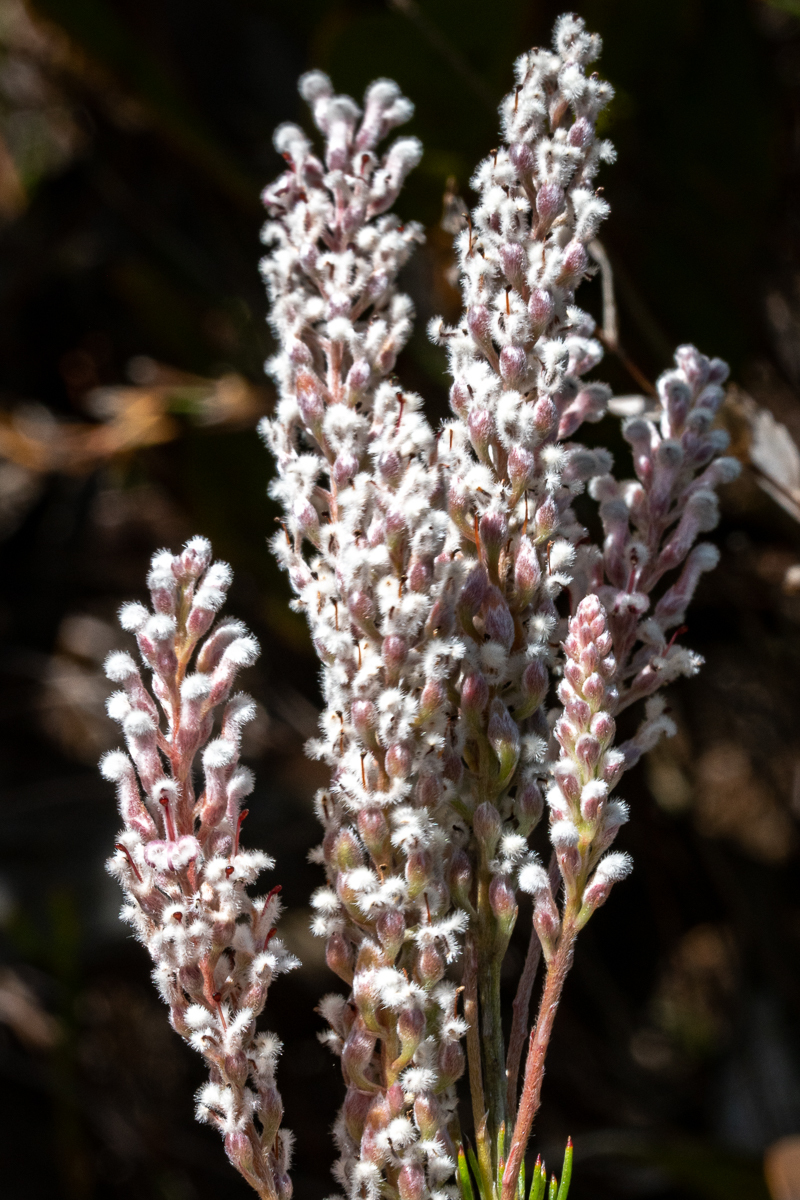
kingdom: Plantae
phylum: Tracheophyta
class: Magnoliopsida
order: Proteales
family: Proteaceae
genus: Spatalla
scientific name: Spatalla racemosa
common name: Lax-stalked spoon
